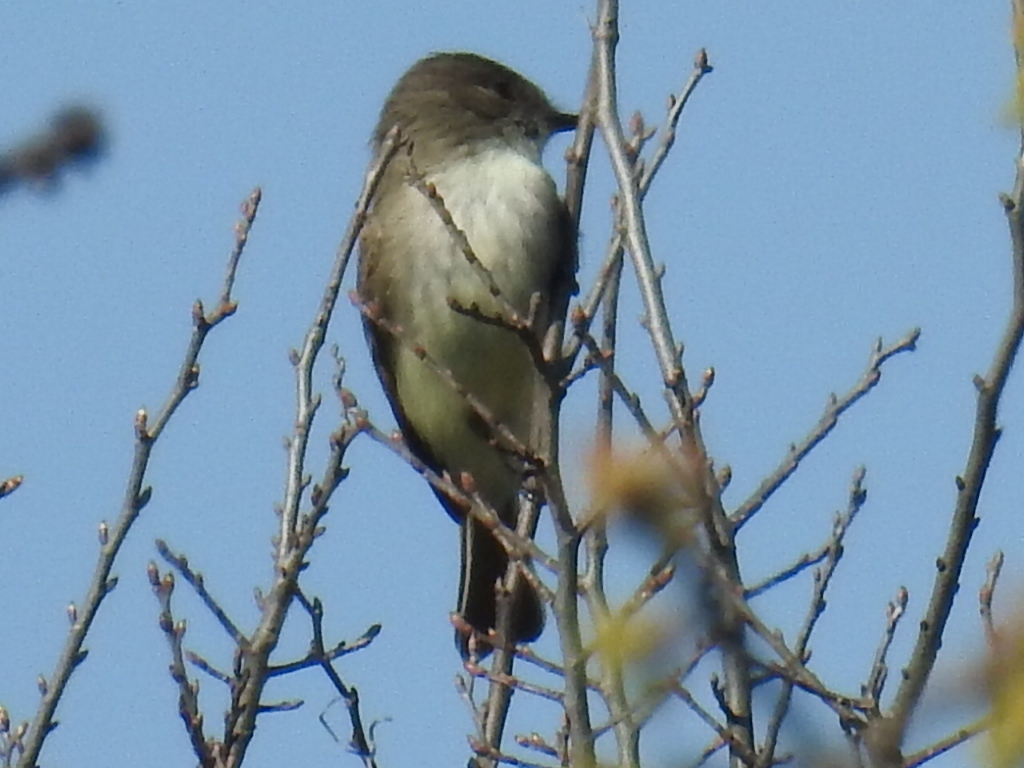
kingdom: Animalia
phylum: Chordata
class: Aves
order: Passeriformes
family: Tyrannidae
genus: Sayornis
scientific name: Sayornis phoebe
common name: Eastern phoebe
